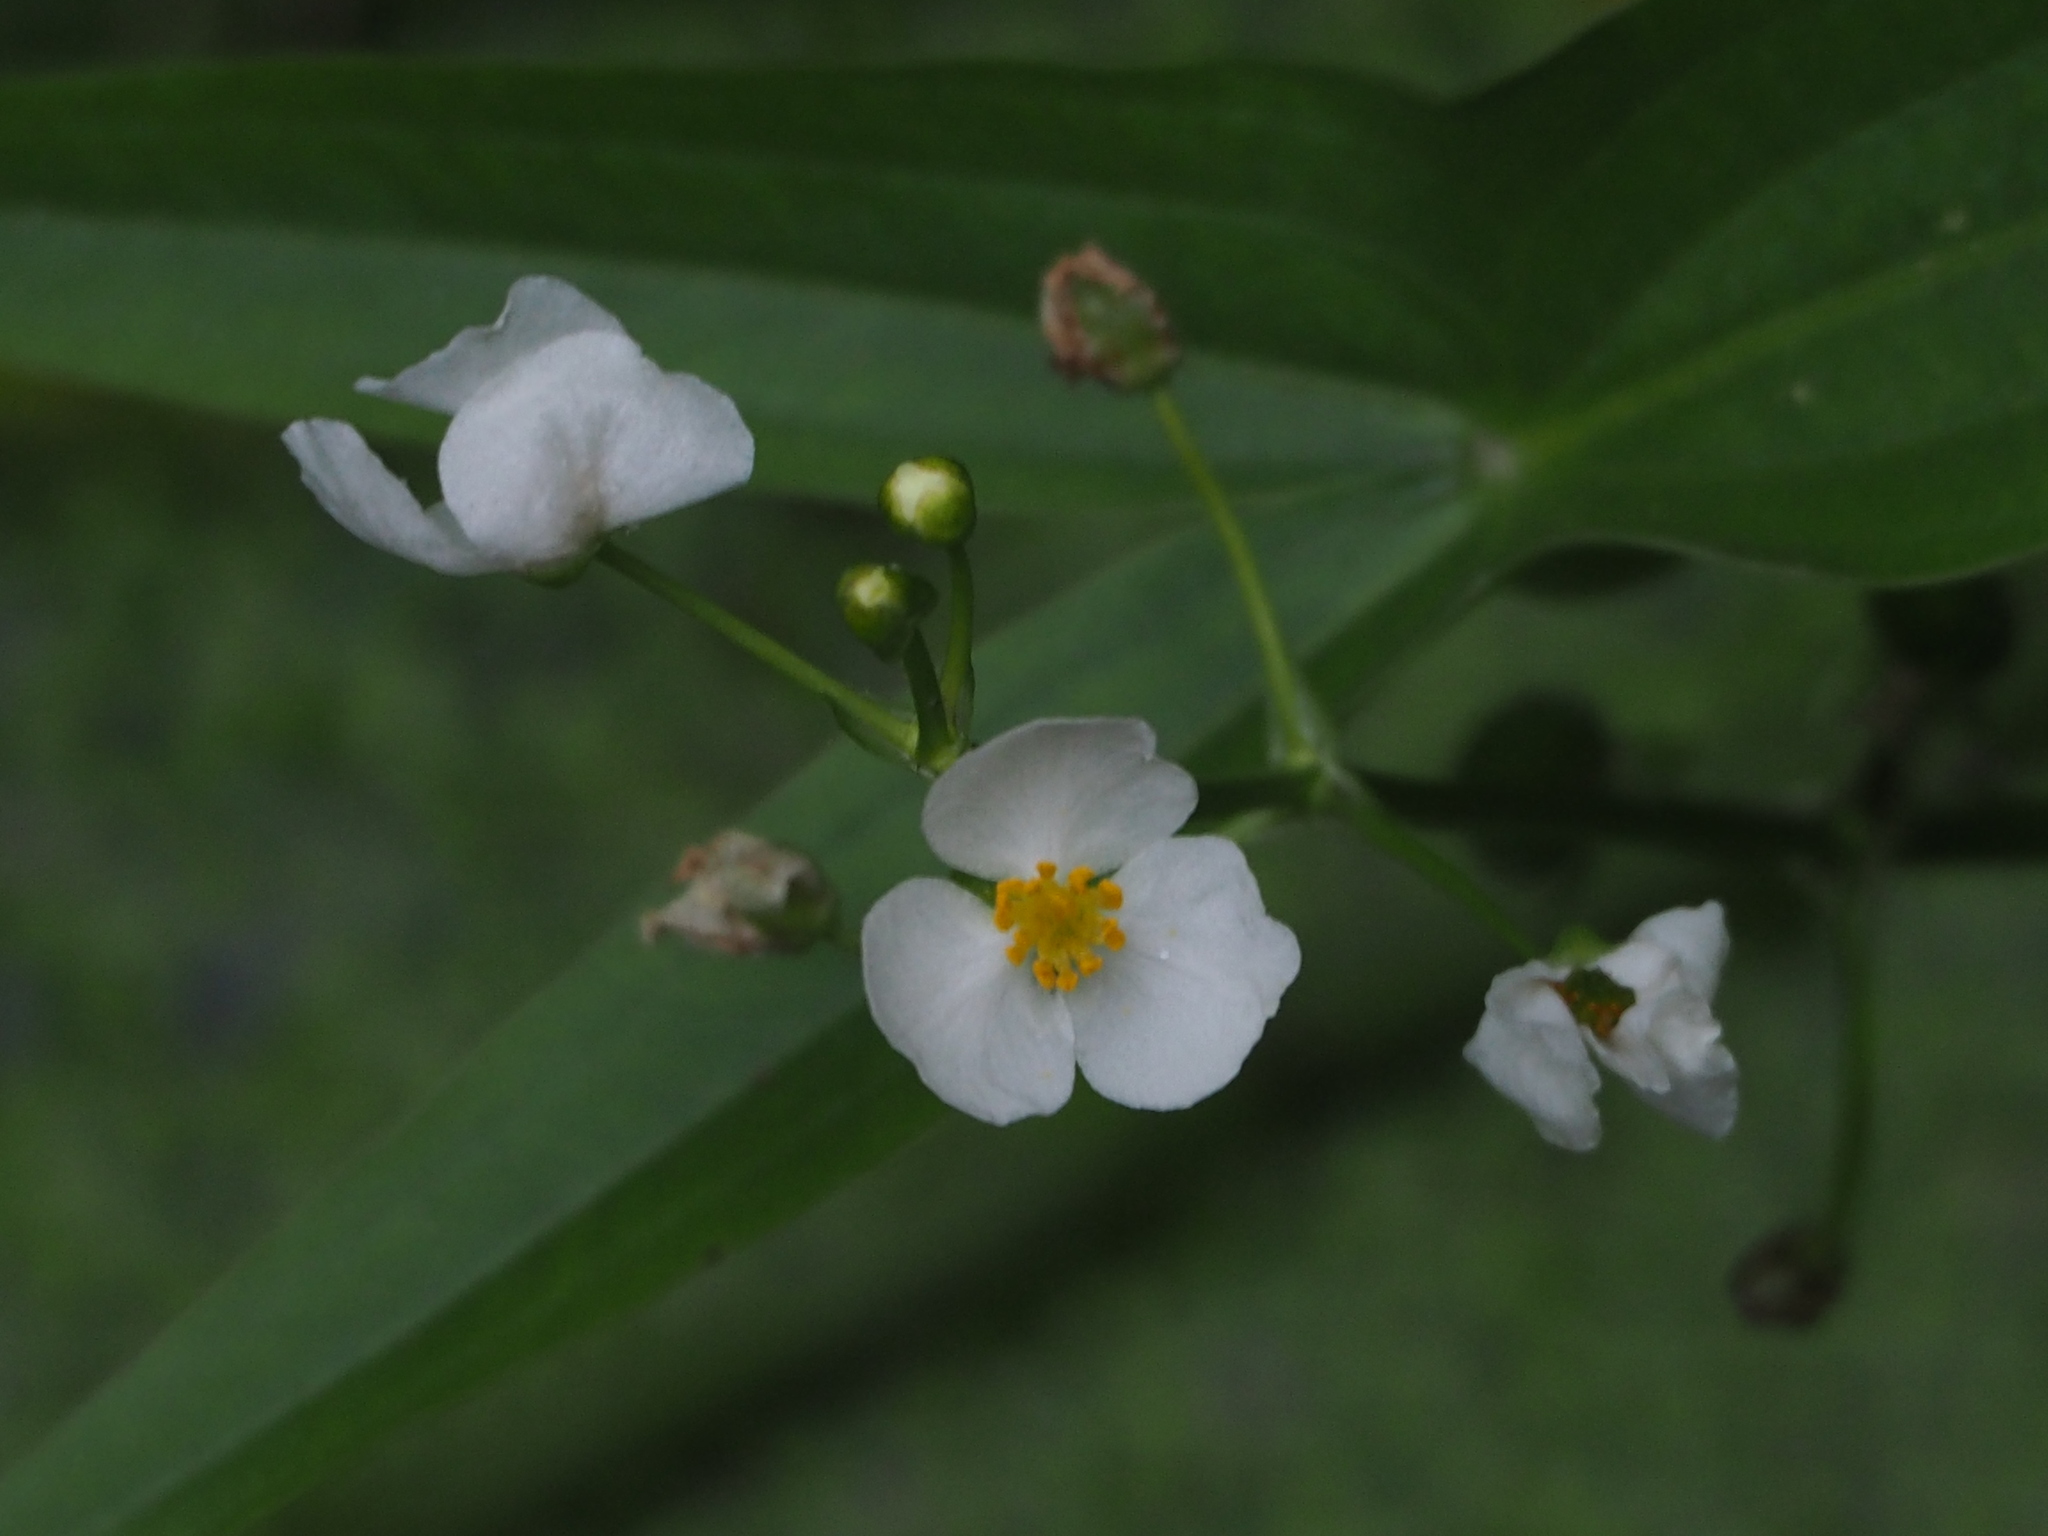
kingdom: Plantae
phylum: Tracheophyta
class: Liliopsida
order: Alismatales
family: Alismataceae
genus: Sagittaria
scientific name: Sagittaria trifolia
